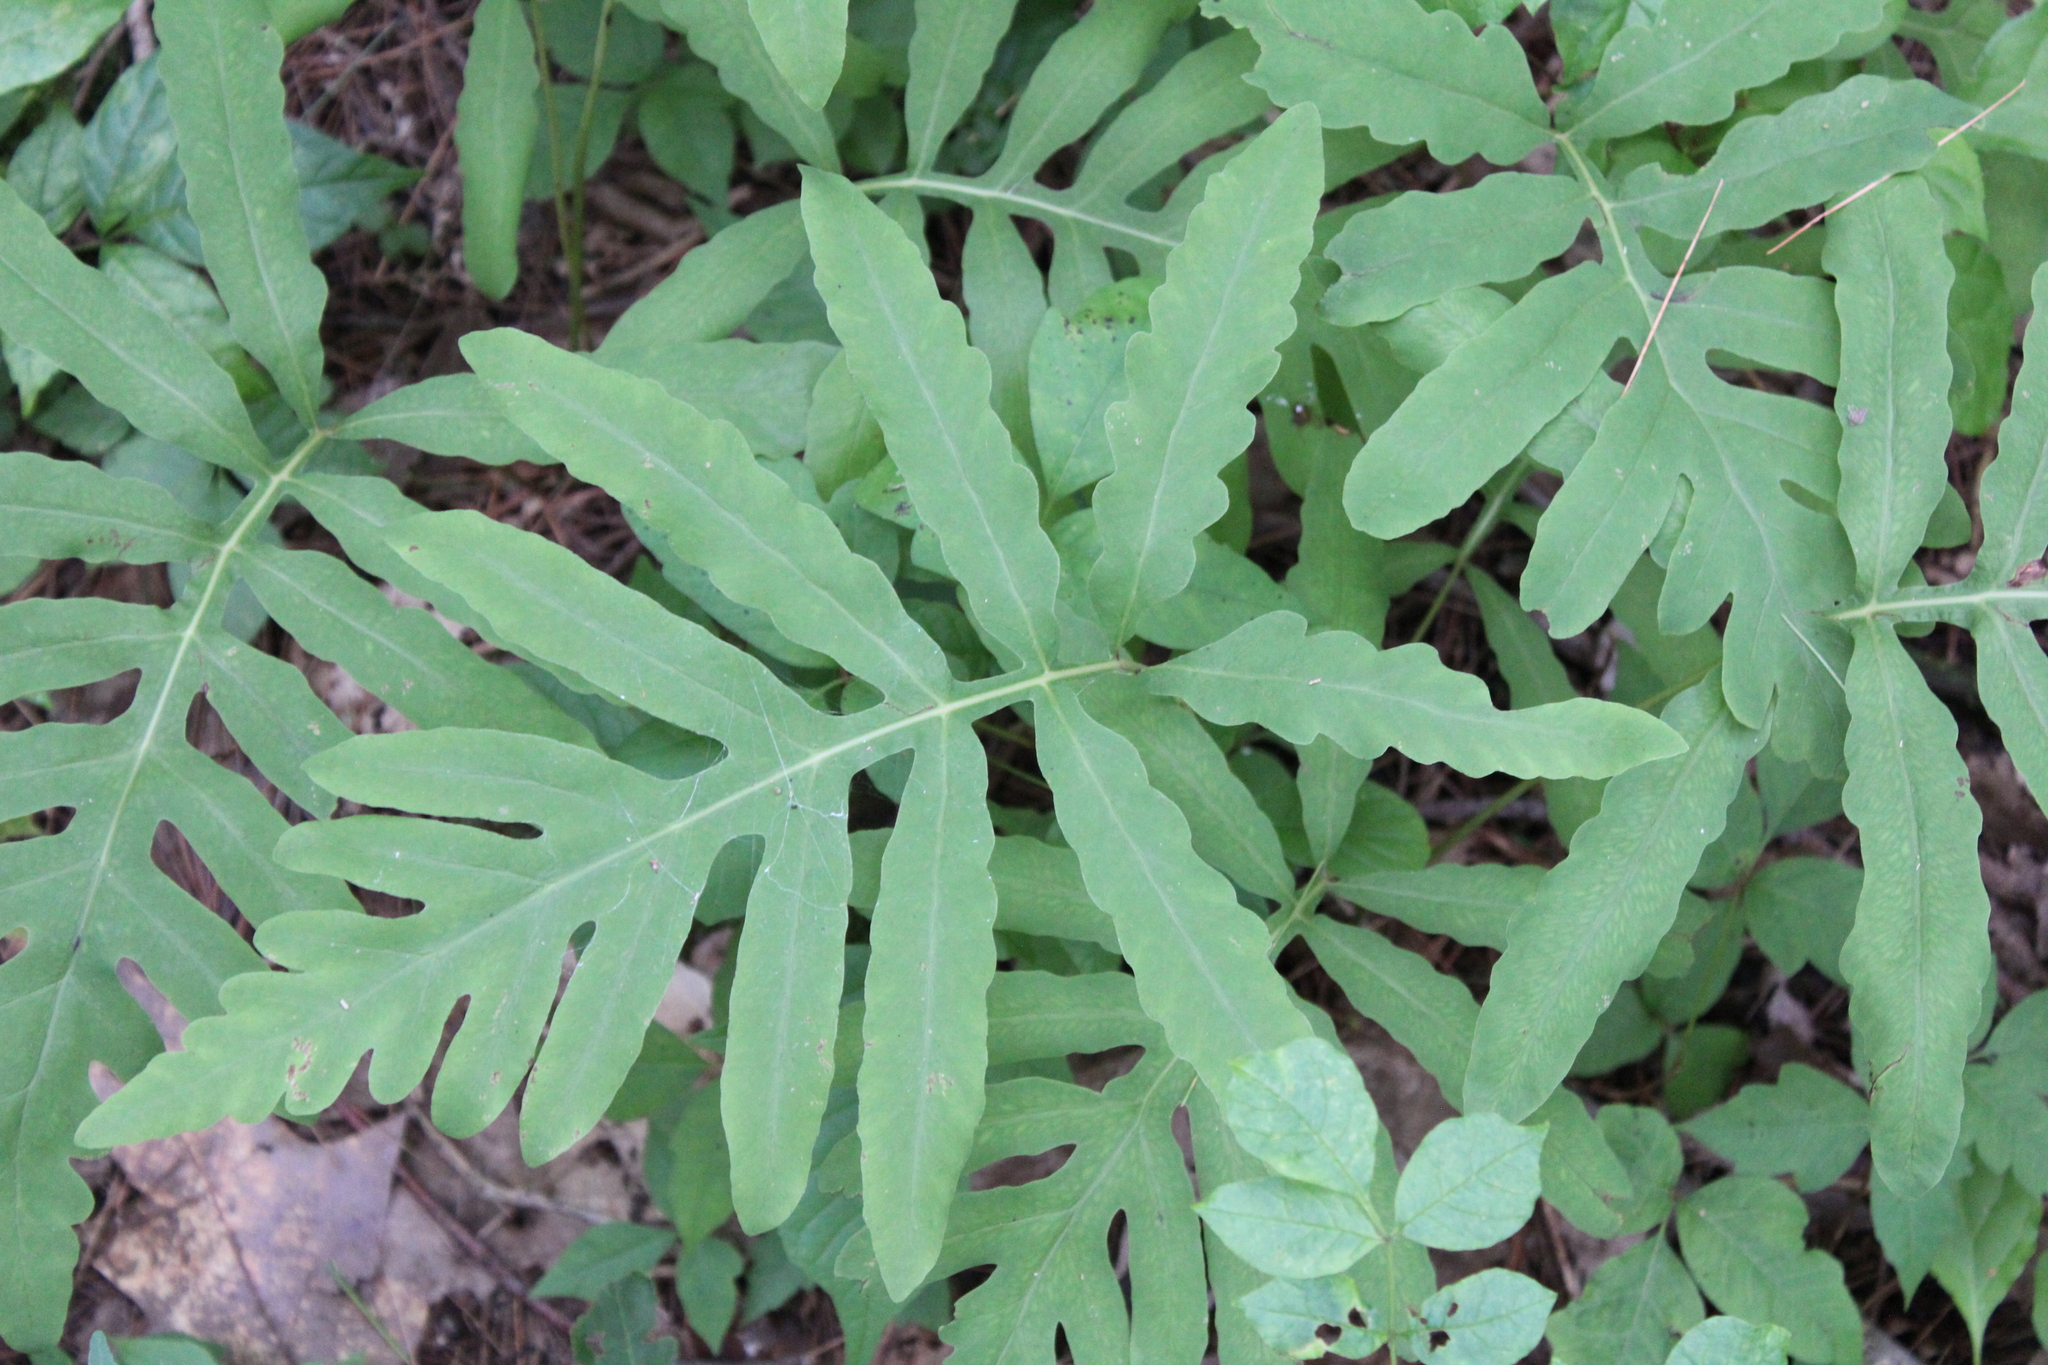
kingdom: Plantae
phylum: Tracheophyta
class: Polypodiopsida
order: Polypodiales
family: Onocleaceae
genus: Onoclea
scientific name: Onoclea sensibilis
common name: Sensitive fern
